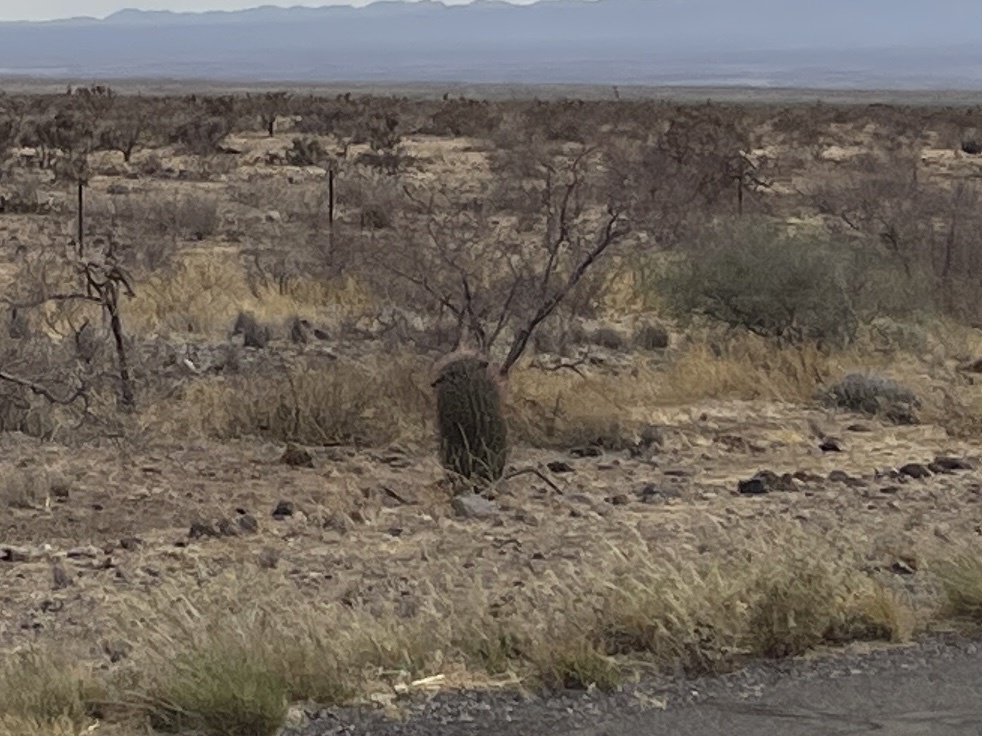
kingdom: Plantae
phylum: Tracheophyta
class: Magnoliopsida
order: Caryophyllales
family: Cactaceae
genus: Ferocactus
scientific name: Ferocactus wislizeni
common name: Candy barrel cactus
